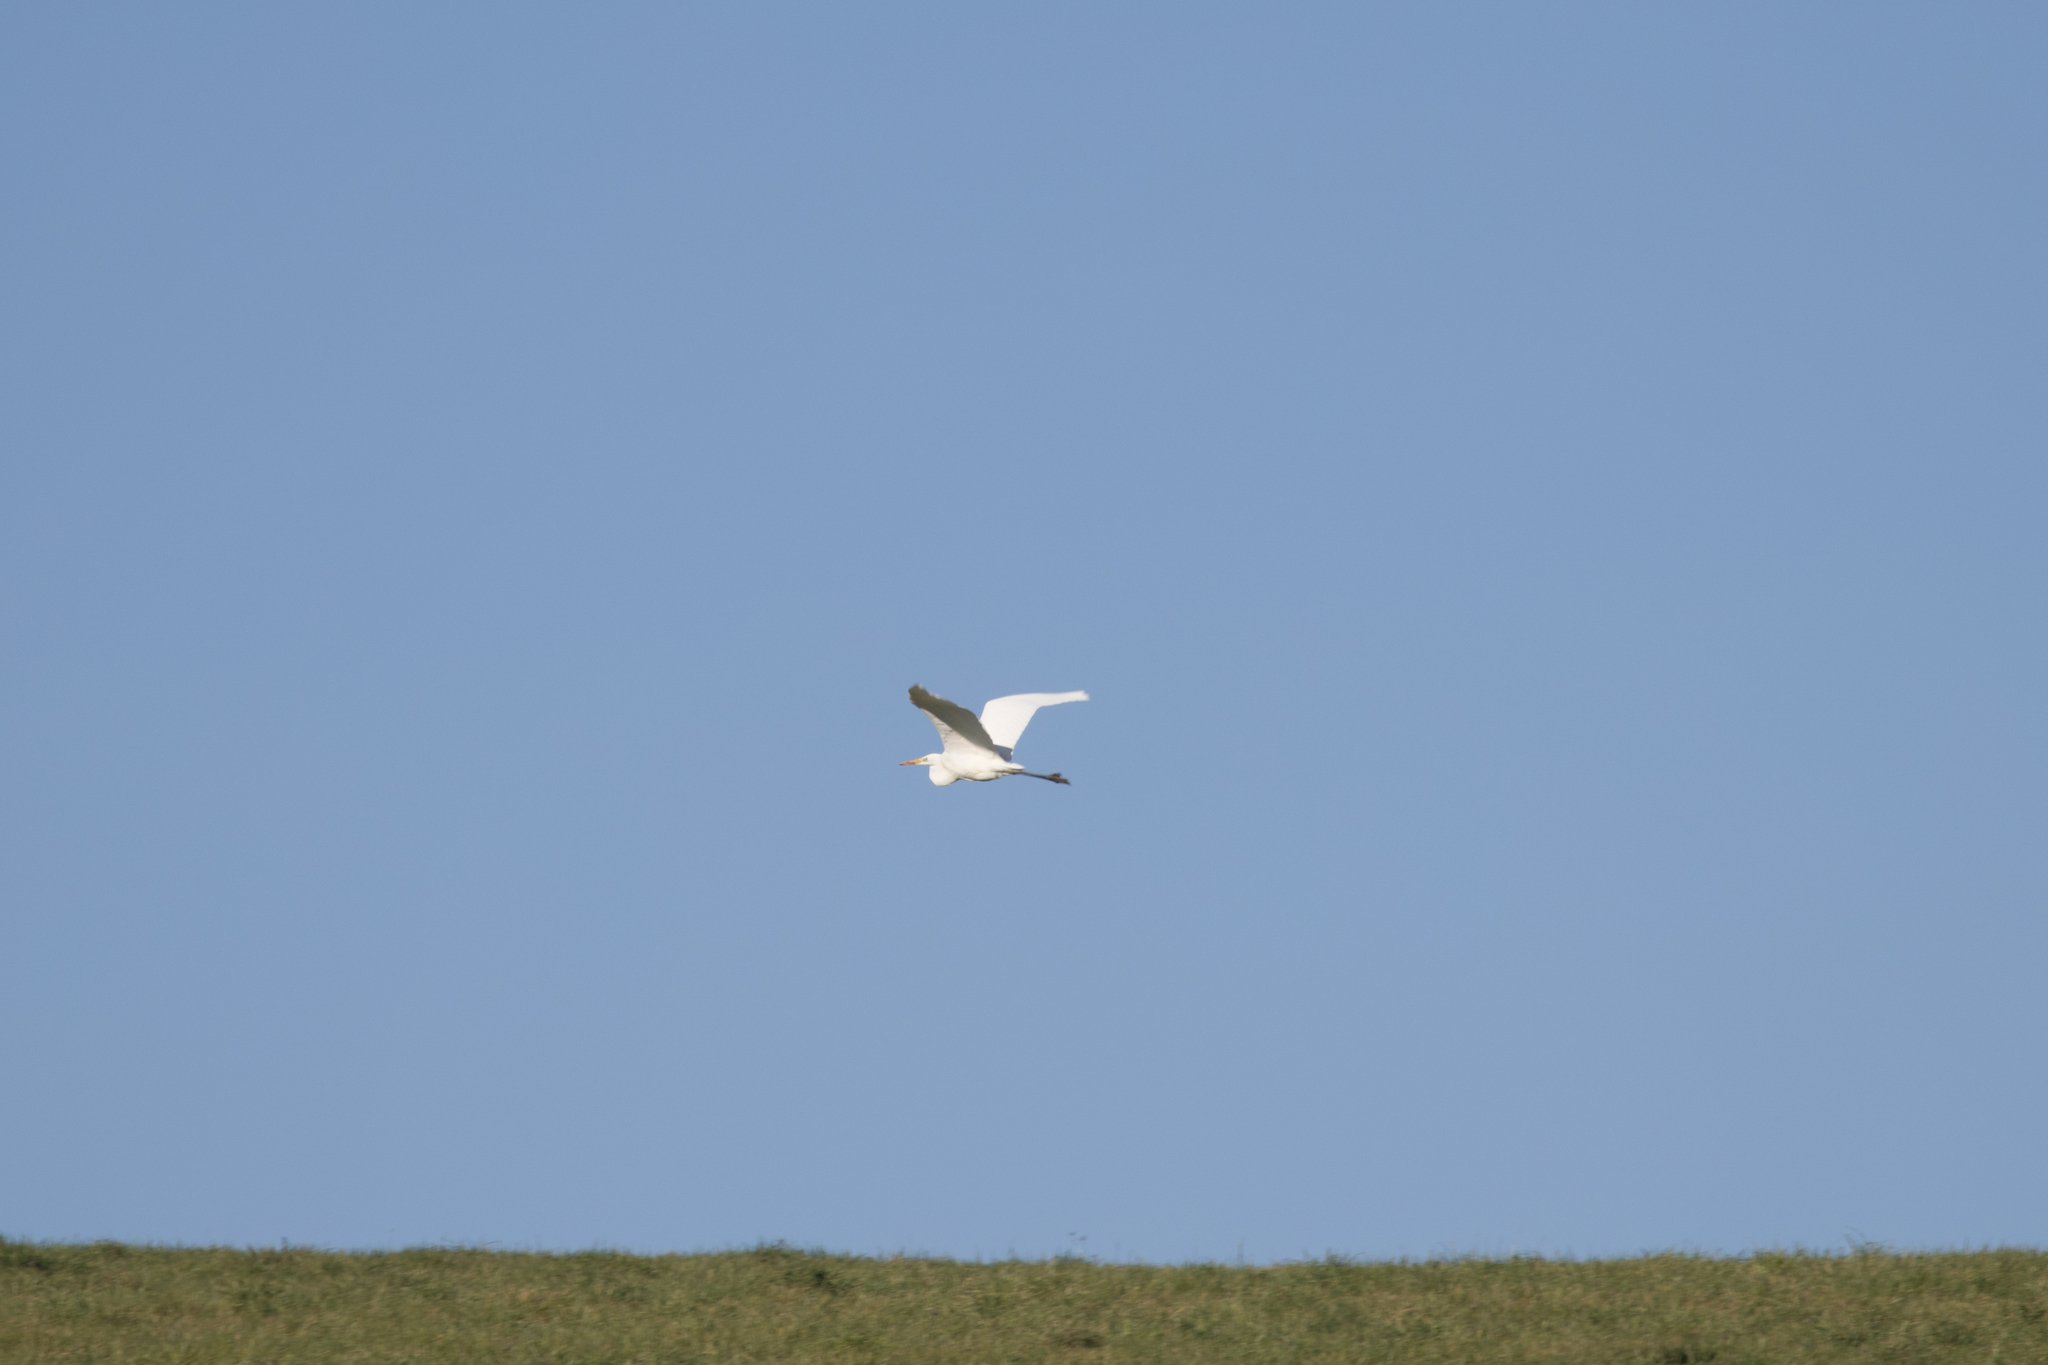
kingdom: Animalia
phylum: Chordata
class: Aves
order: Pelecaniformes
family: Ardeidae
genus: Ardea
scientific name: Ardea alba
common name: Great egret
